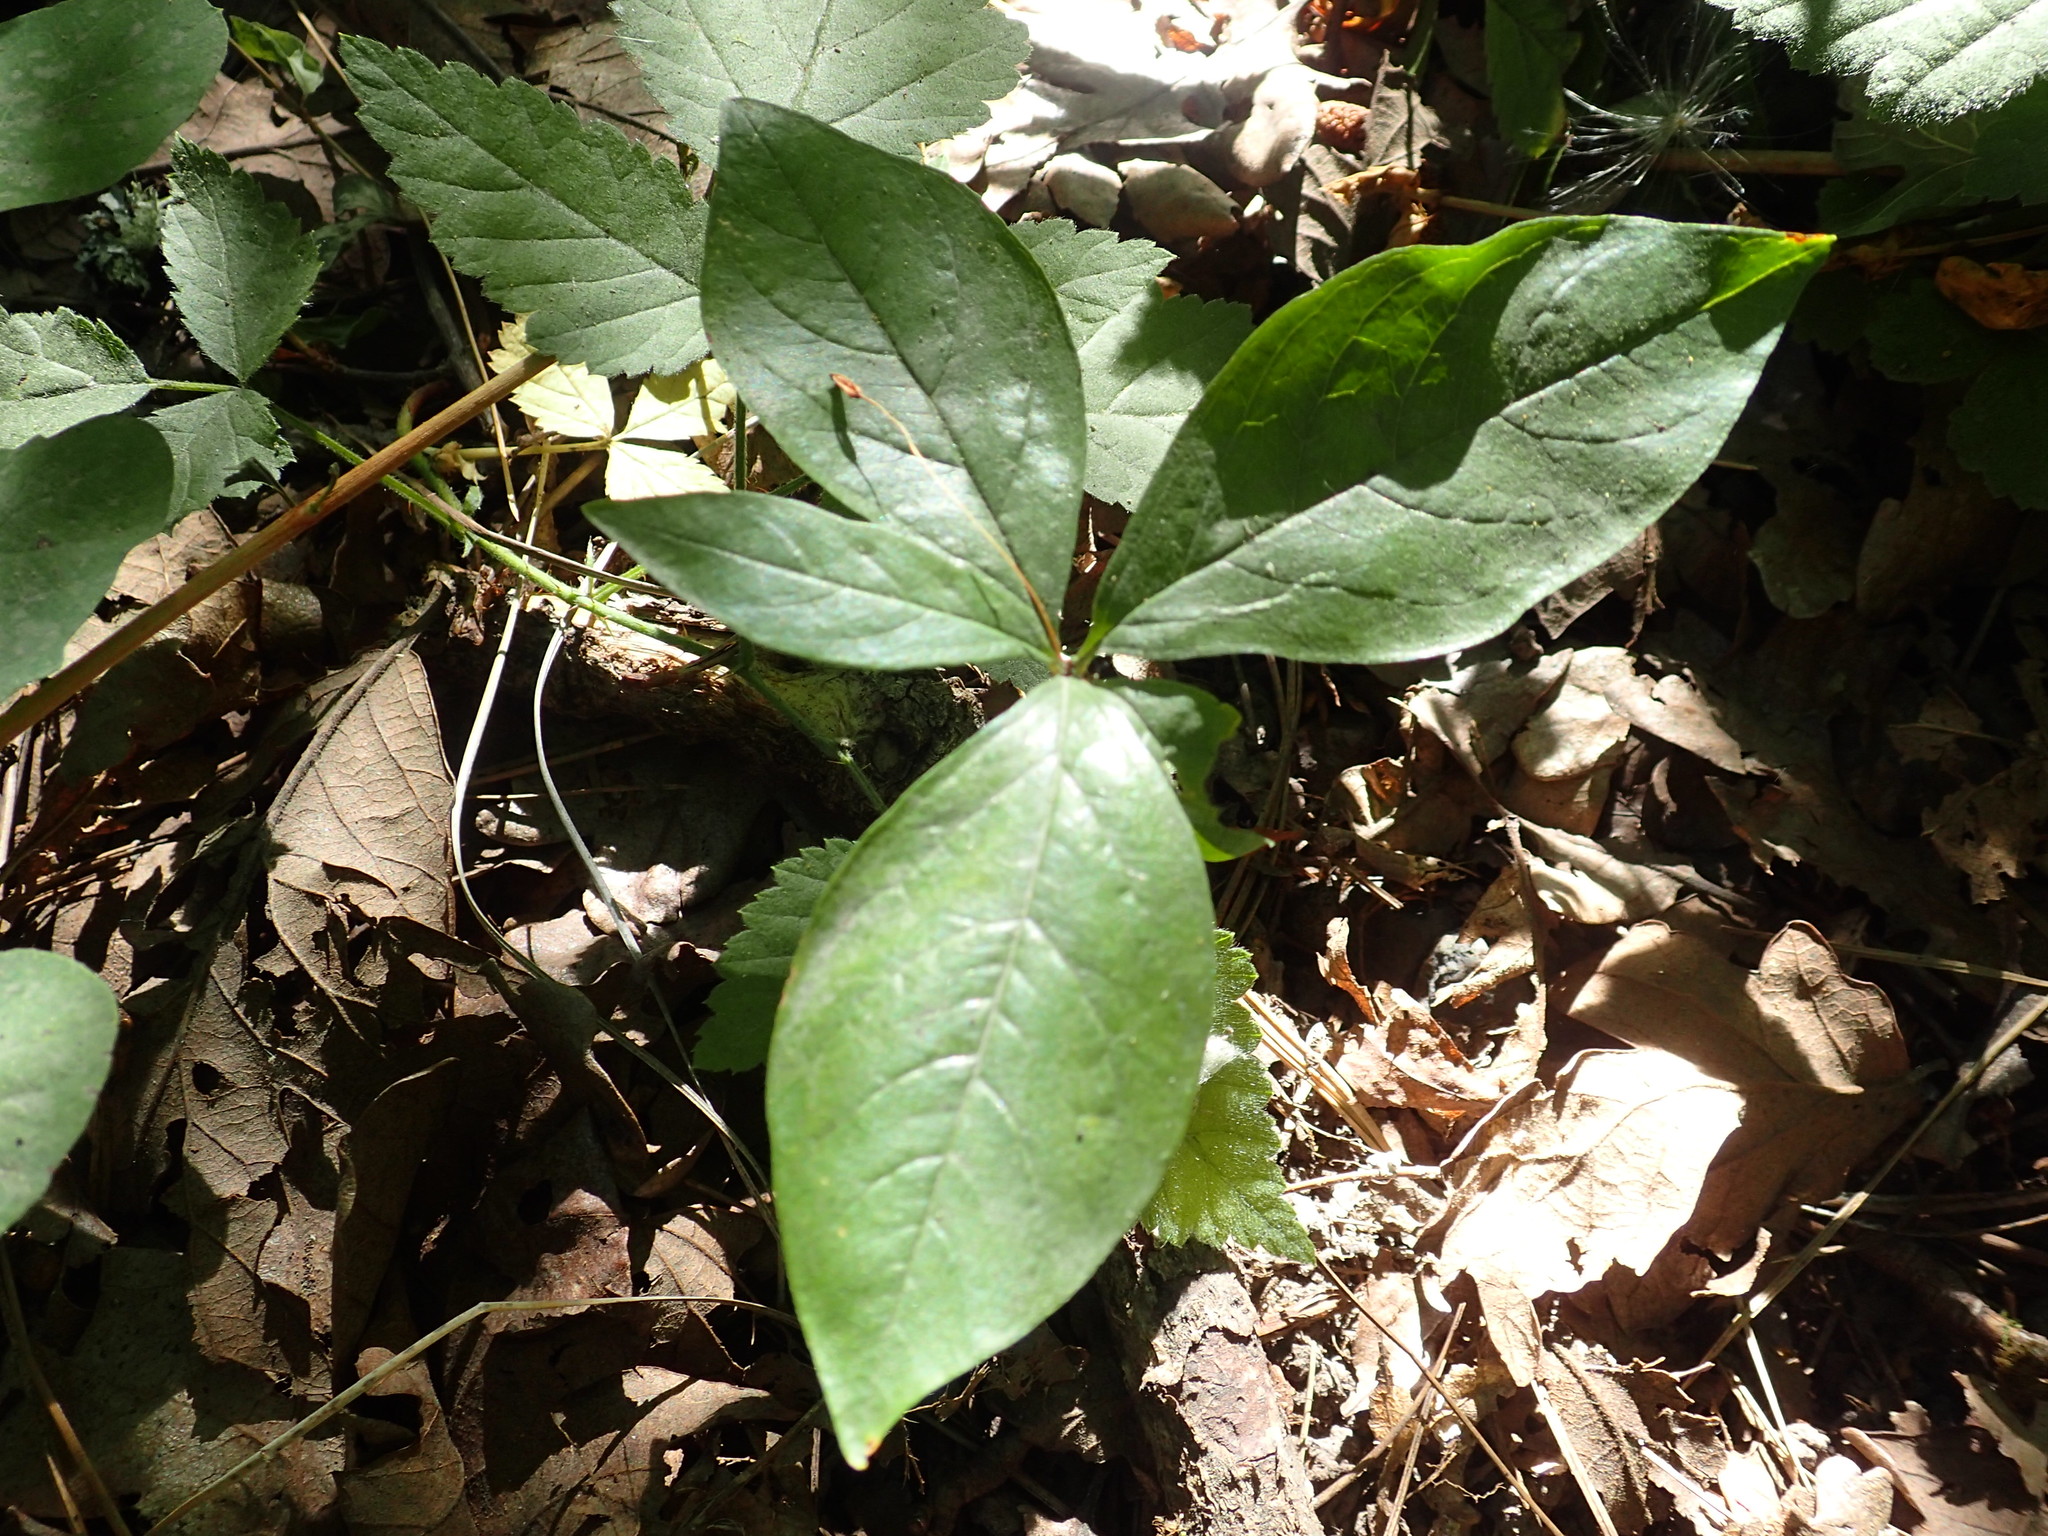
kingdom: Plantae
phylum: Tracheophyta
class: Magnoliopsida
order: Ericales
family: Primulaceae
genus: Lysimachia
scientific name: Lysimachia latifolia
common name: Pacific starflower
